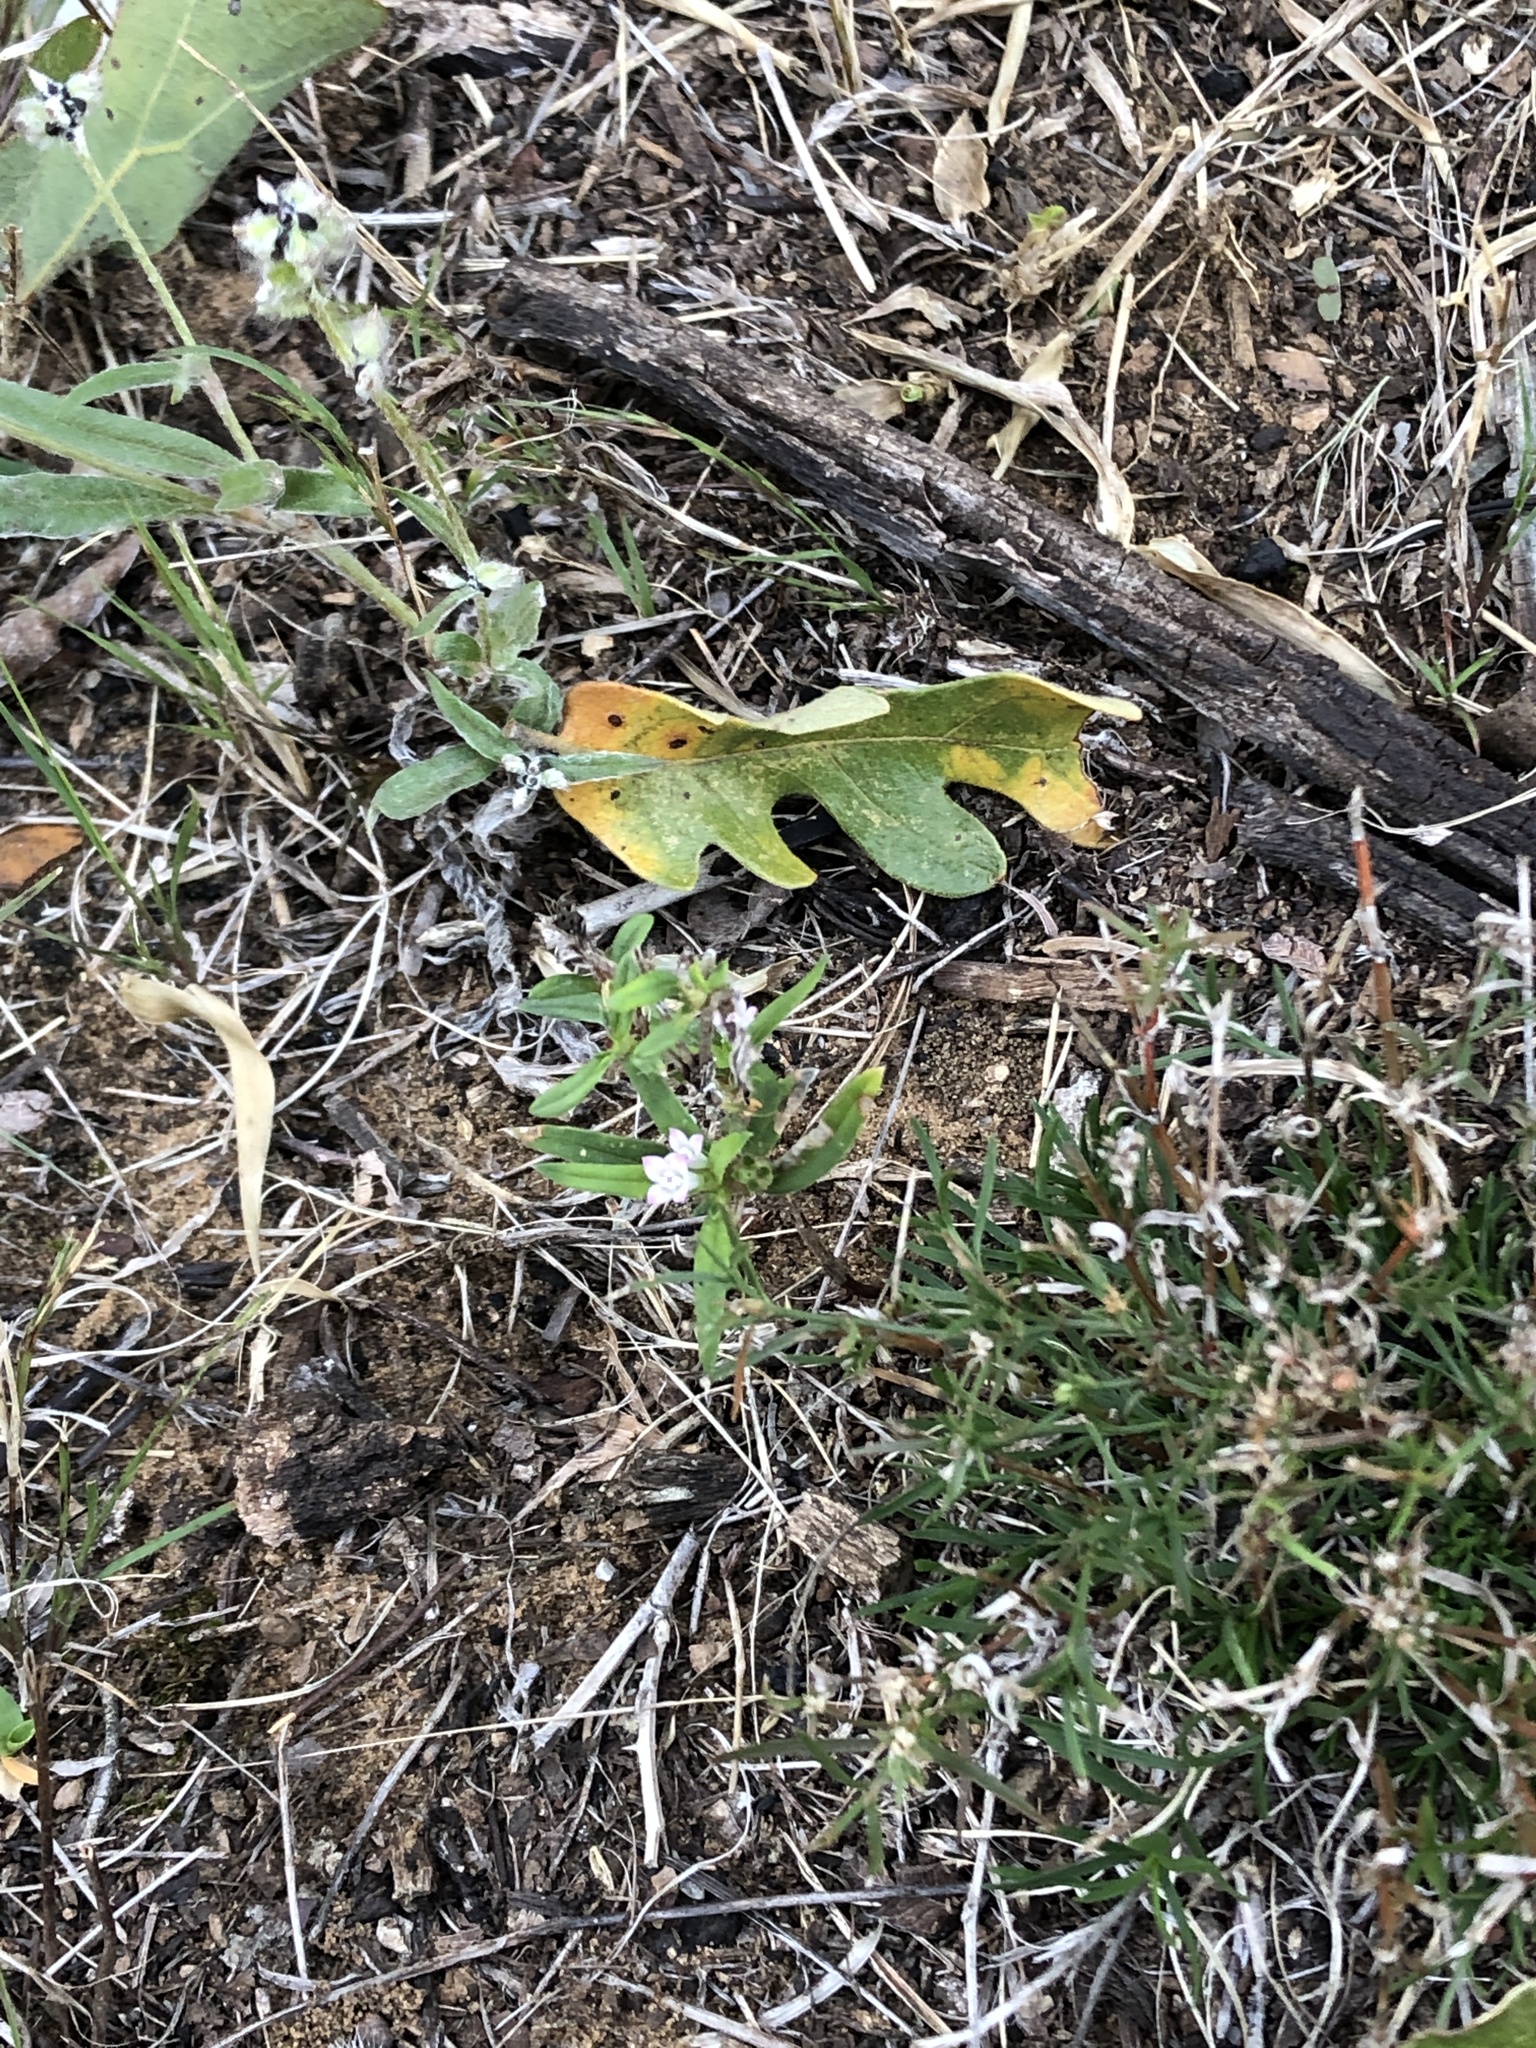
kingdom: Plantae
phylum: Tracheophyta
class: Magnoliopsida
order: Gentianales
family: Rubiaceae
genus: Hexasepalum
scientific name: Hexasepalum teres
